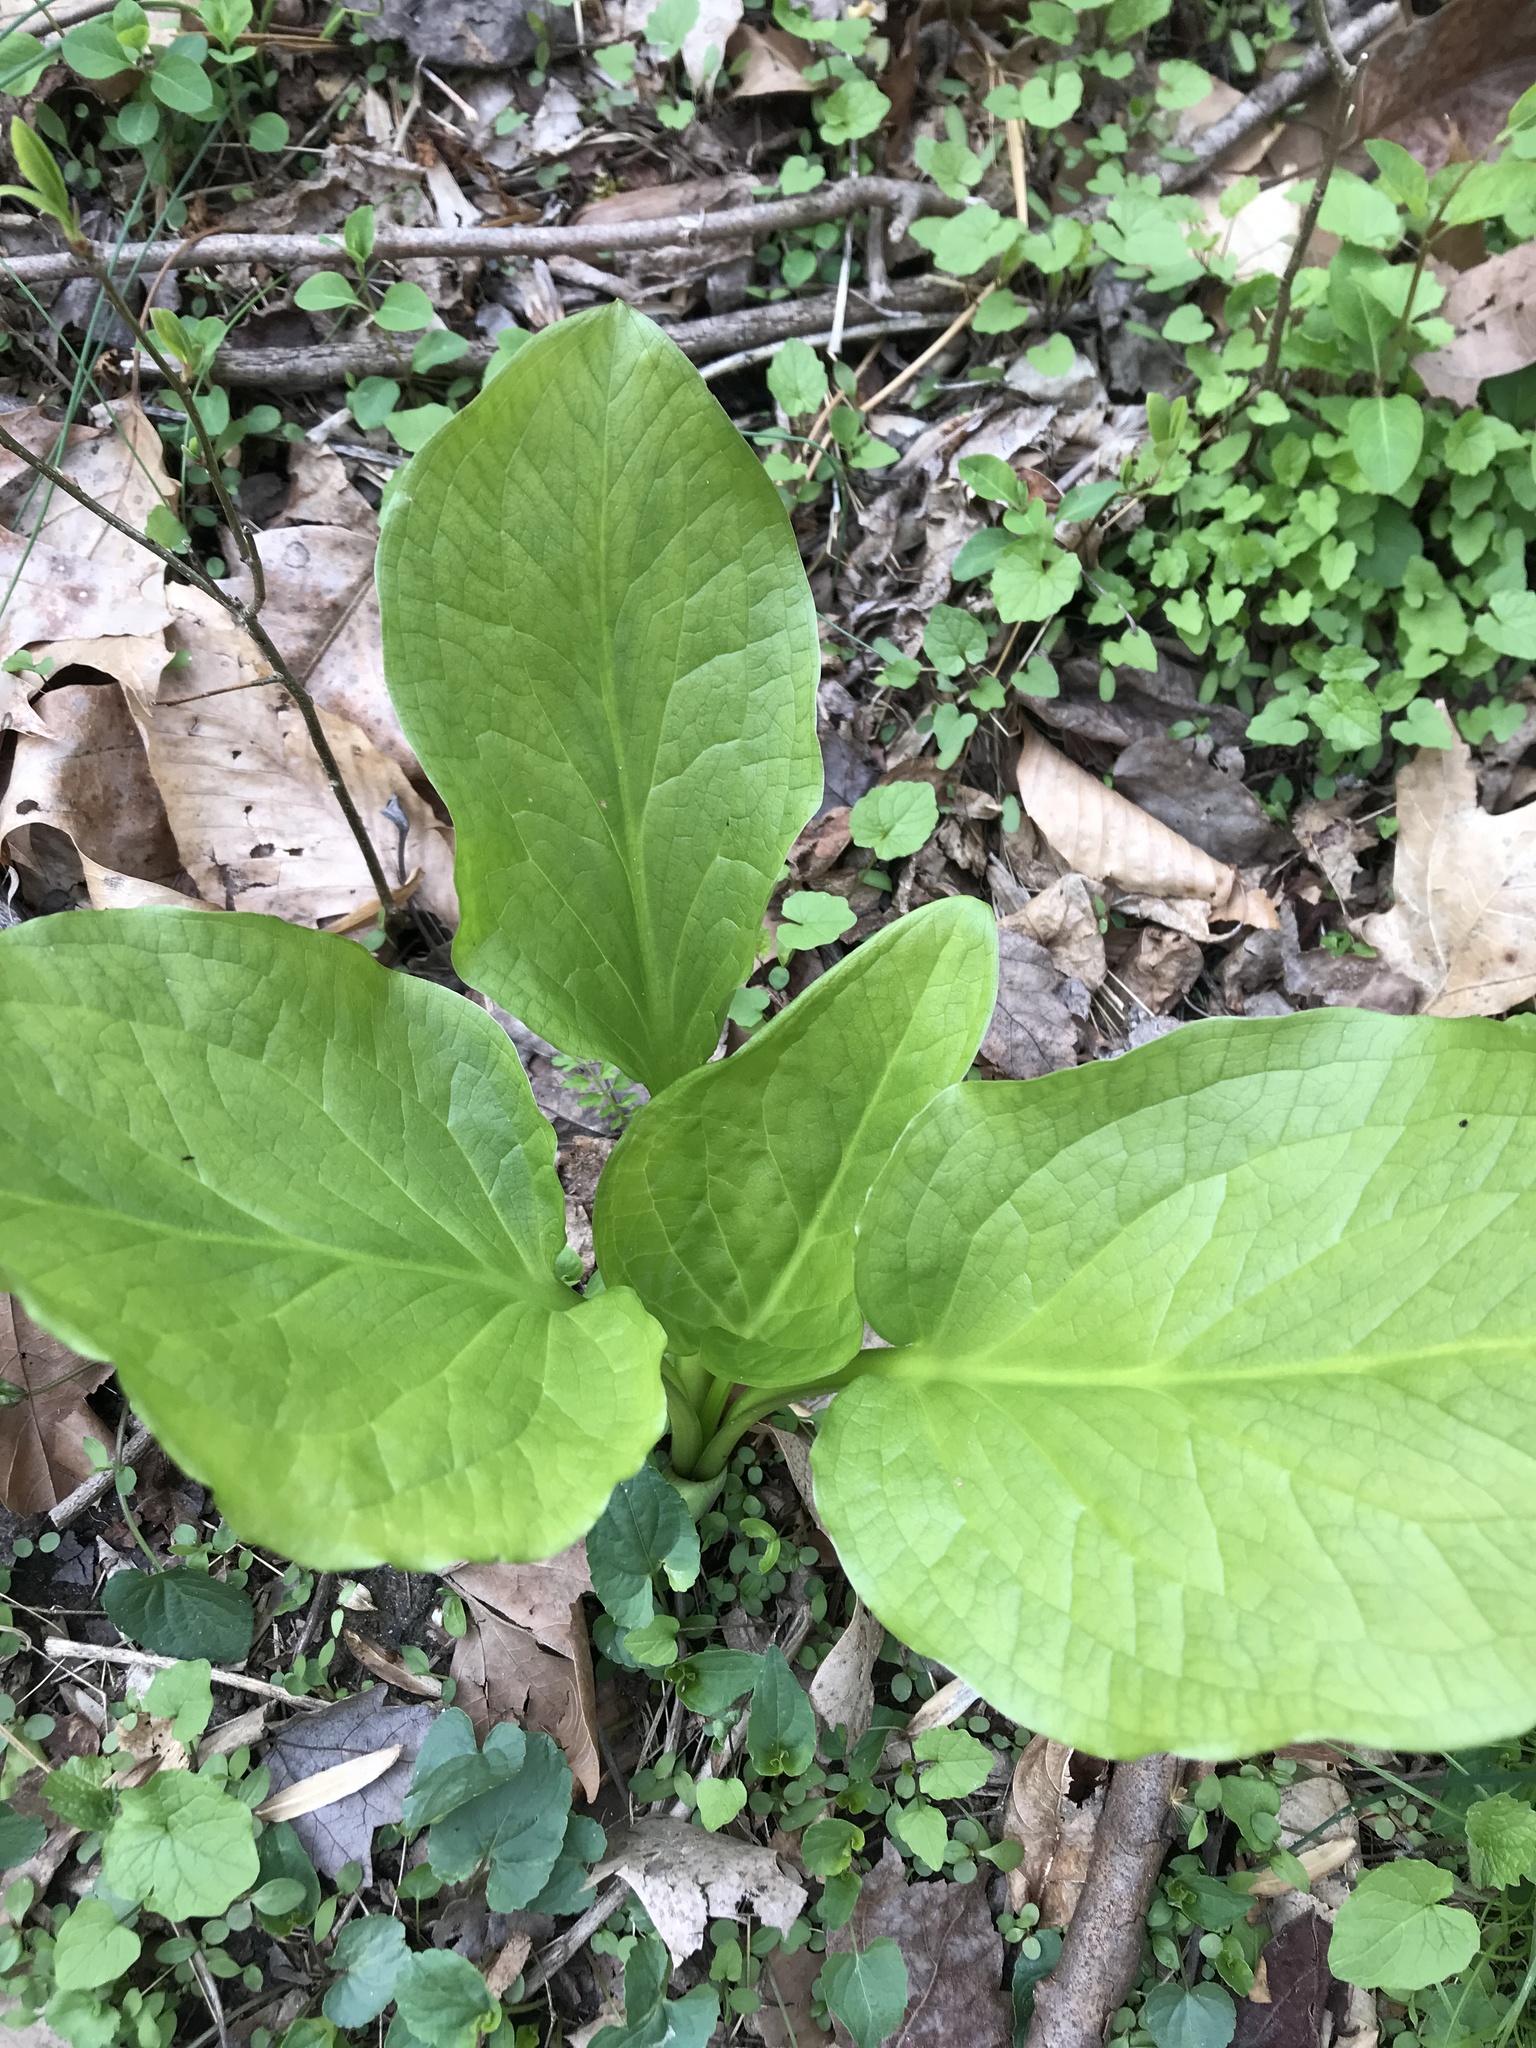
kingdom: Plantae
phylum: Tracheophyta
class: Liliopsida
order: Alismatales
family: Araceae
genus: Symplocarpus
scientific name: Symplocarpus foetidus
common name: Eastern skunk cabbage
